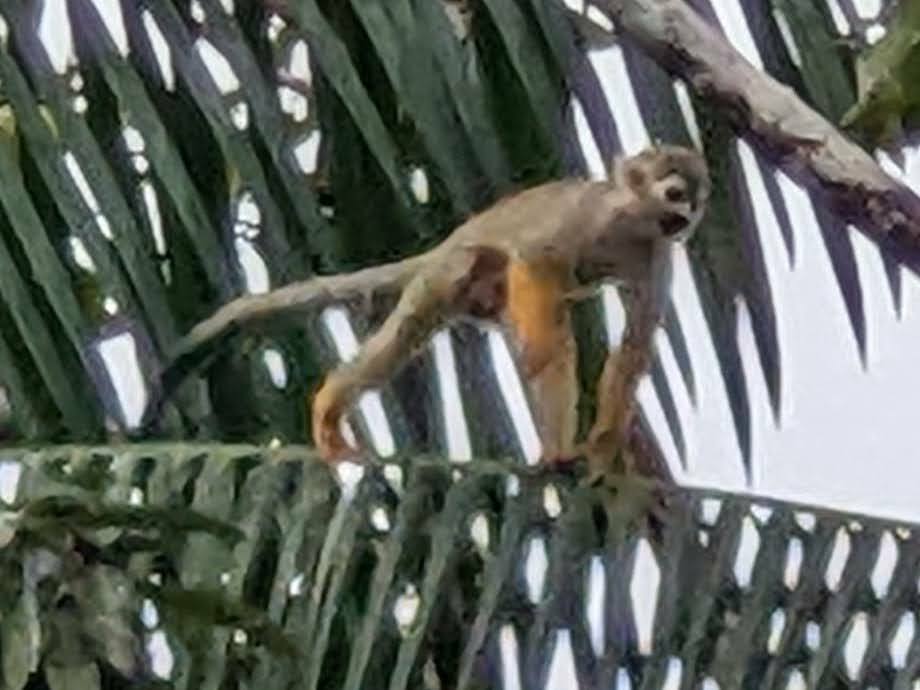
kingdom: Animalia
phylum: Chordata
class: Mammalia
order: Primates
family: Cebidae
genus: Saimiri
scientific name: Saimiri sciureus
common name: Common squirrel monkey
